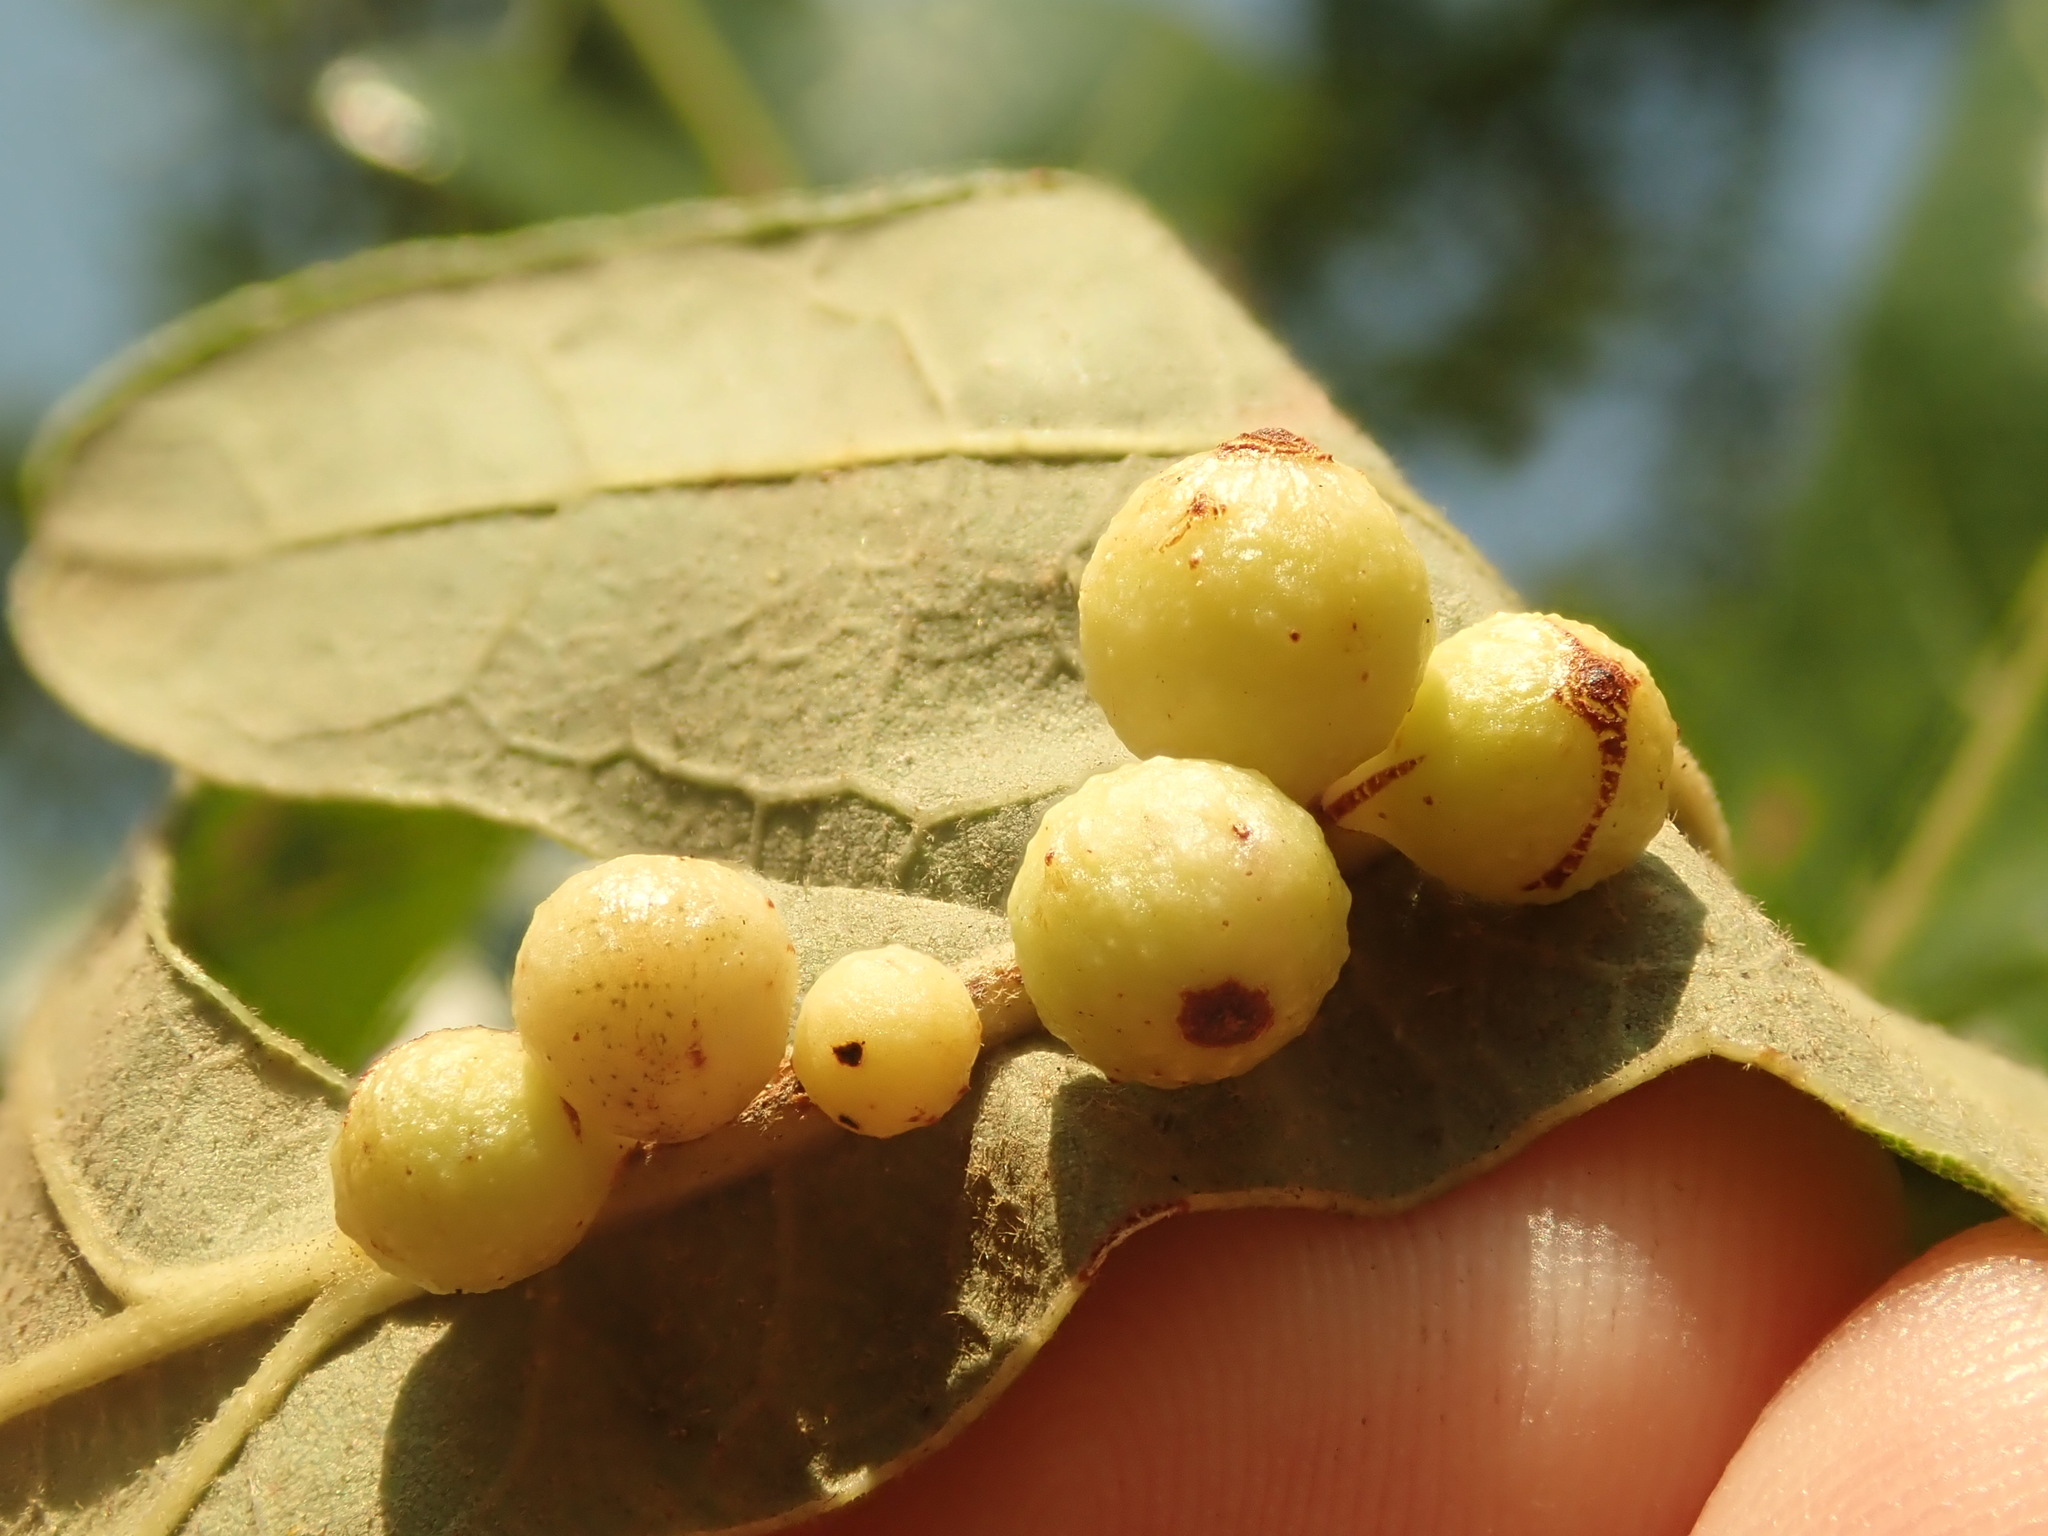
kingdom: Animalia
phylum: Arthropoda
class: Insecta
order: Hymenoptera
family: Cynipidae
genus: Andricus
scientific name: Andricus
